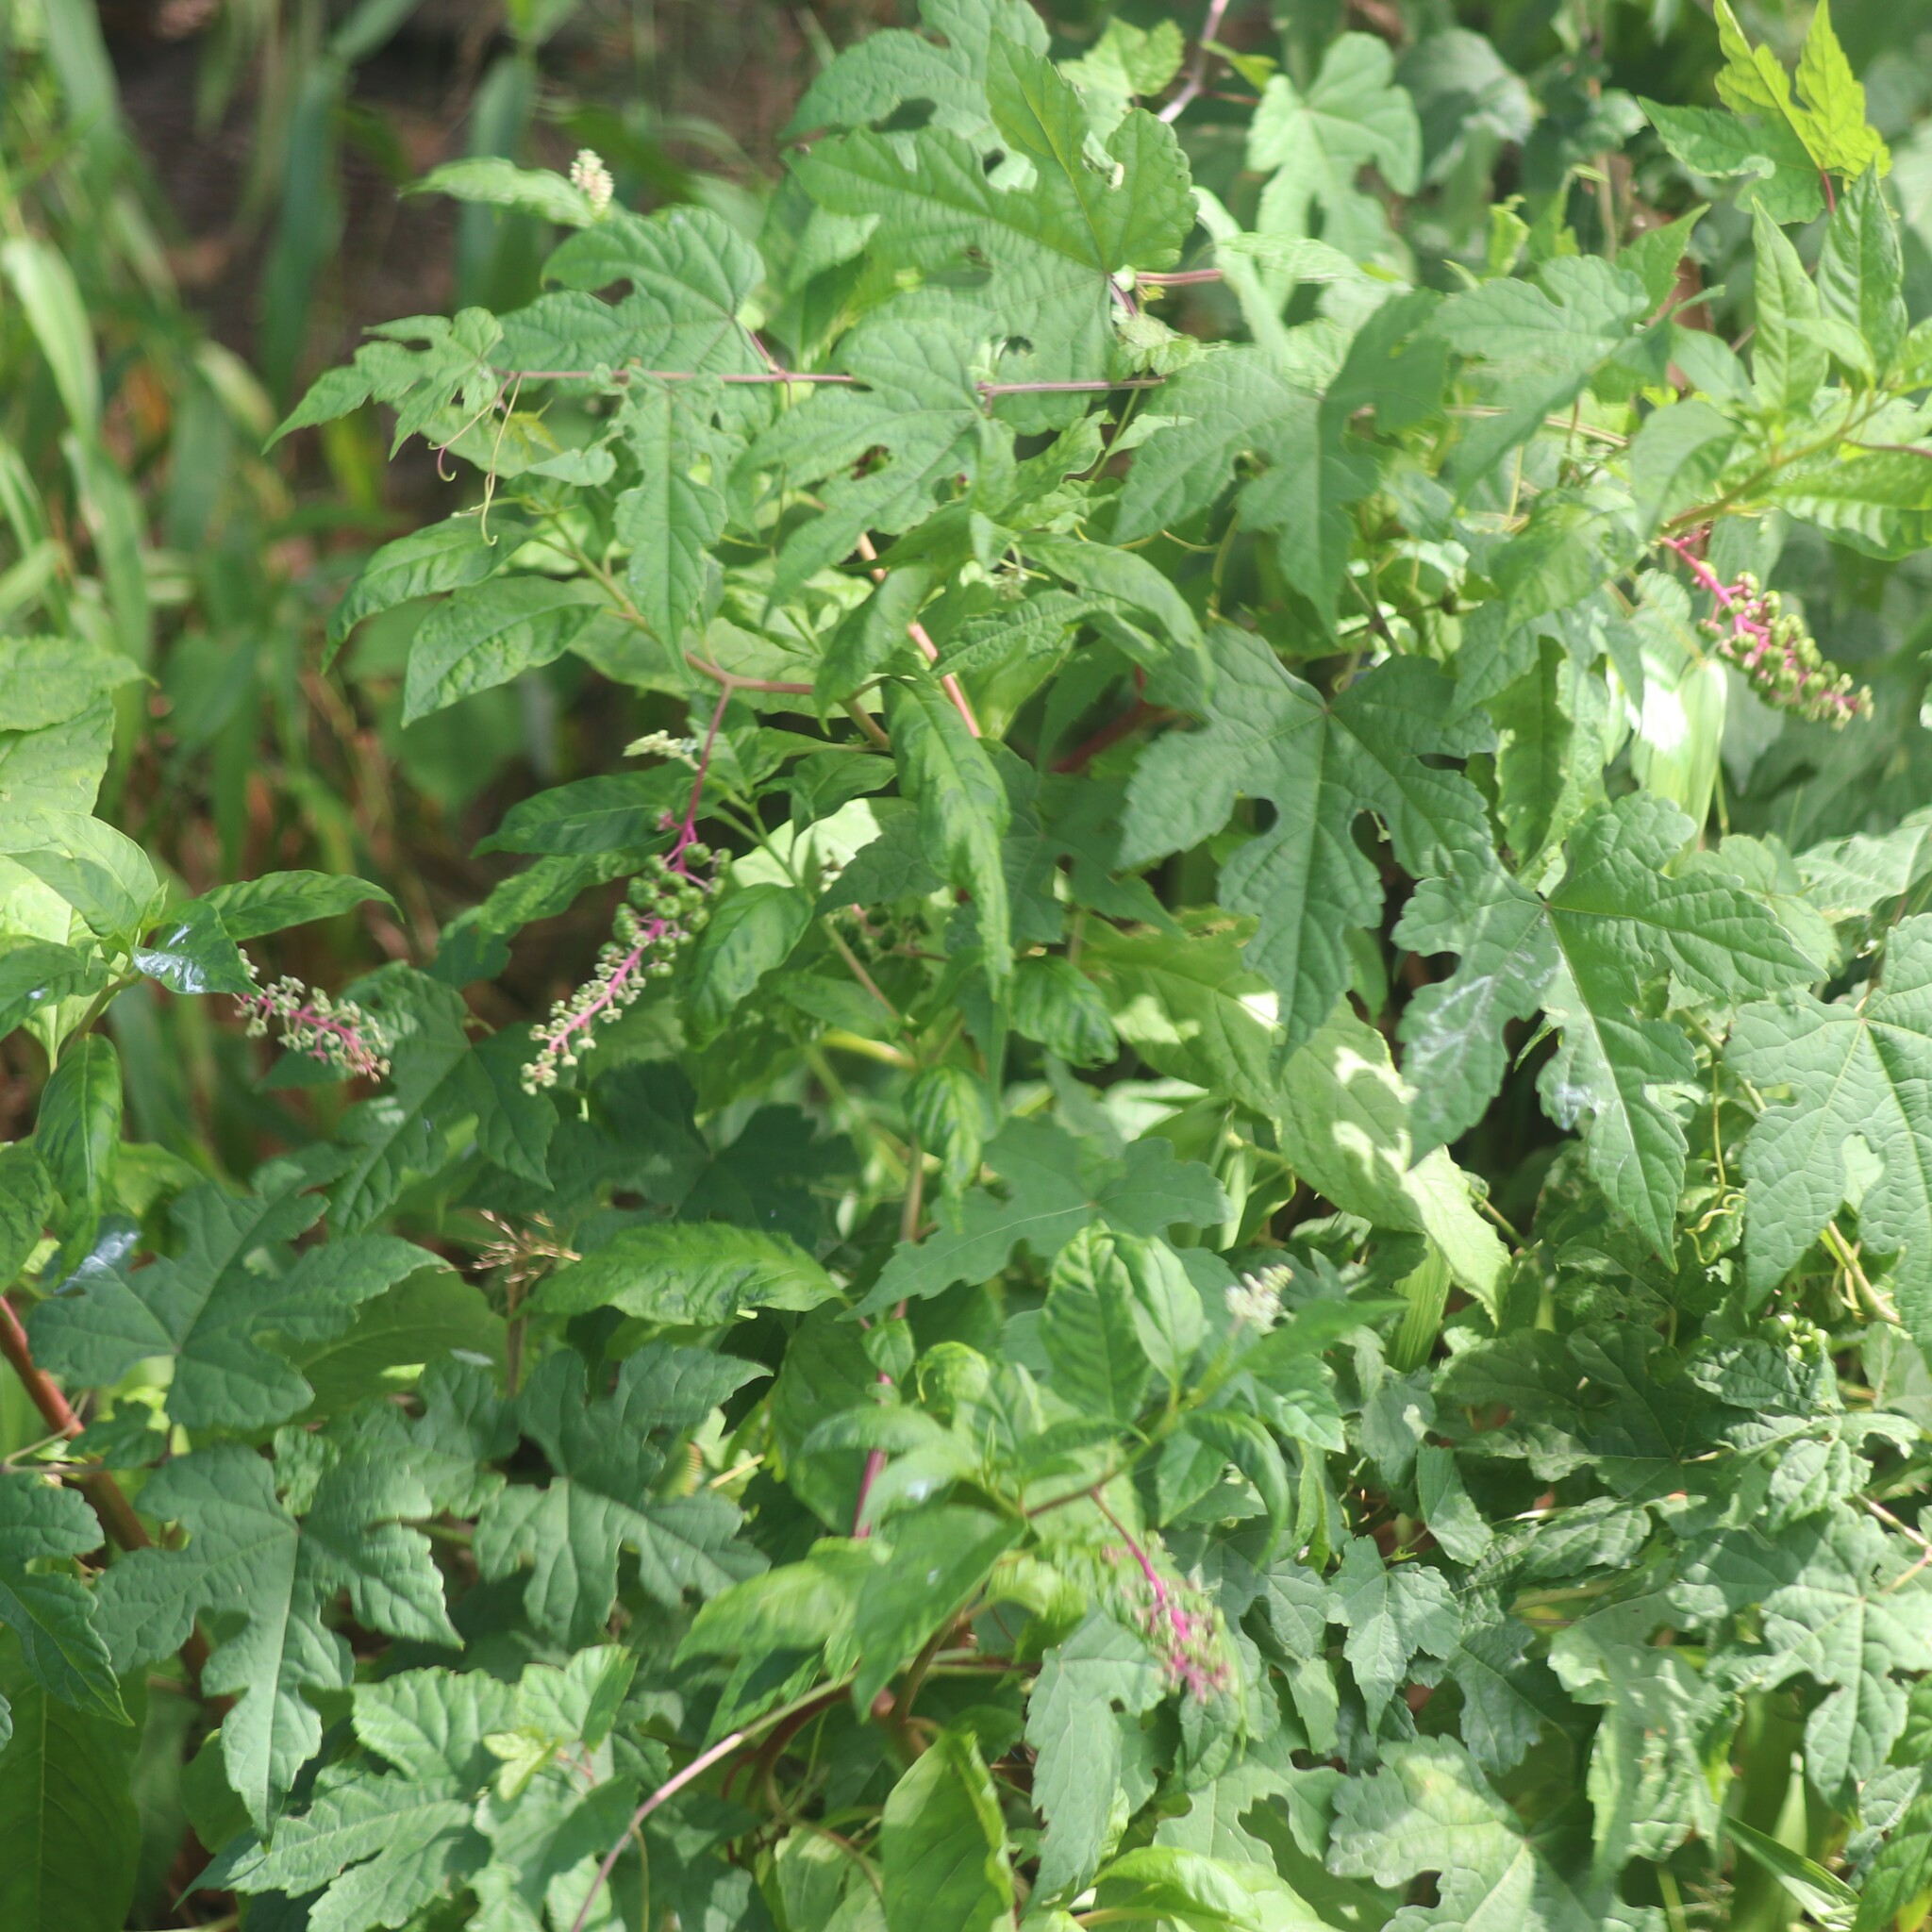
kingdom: Plantae
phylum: Tracheophyta
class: Magnoliopsida
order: Caryophyllales
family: Phytolaccaceae
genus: Phytolacca
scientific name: Phytolacca americana
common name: American pokeweed
